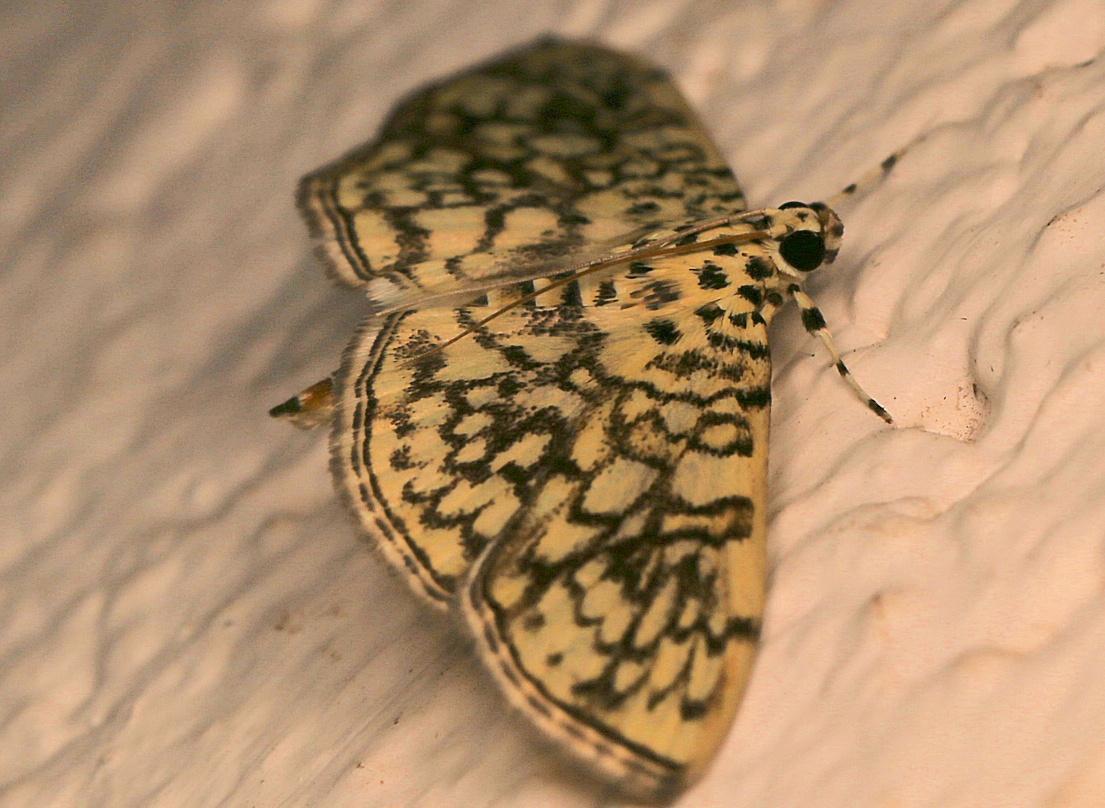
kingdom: Animalia
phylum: Arthropoda
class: Insecta
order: Lepidoptera
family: Crambidae
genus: Haritalodes
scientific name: Haritalodes derogata
